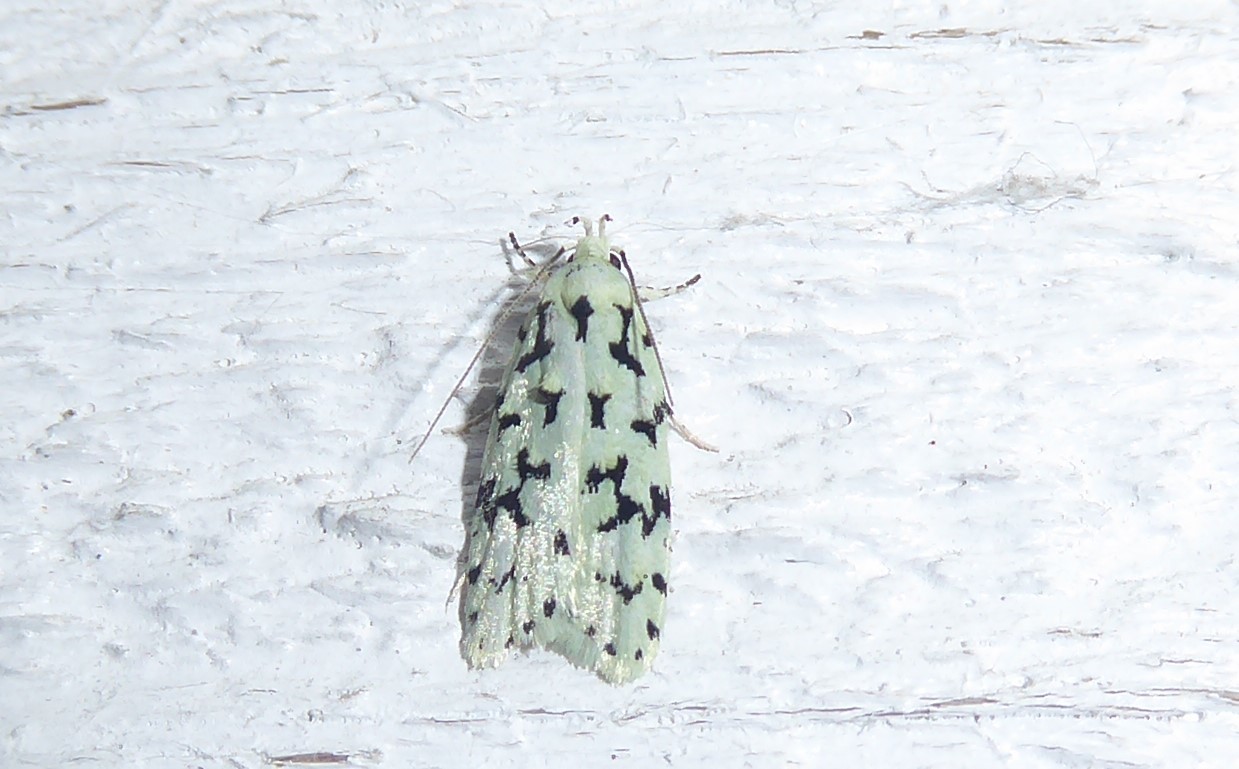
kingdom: Animalia
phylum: Arthropoda
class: Insecta
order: Lepidoptera
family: Oecophoridae
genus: Izatha
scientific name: Izatha huttoni
